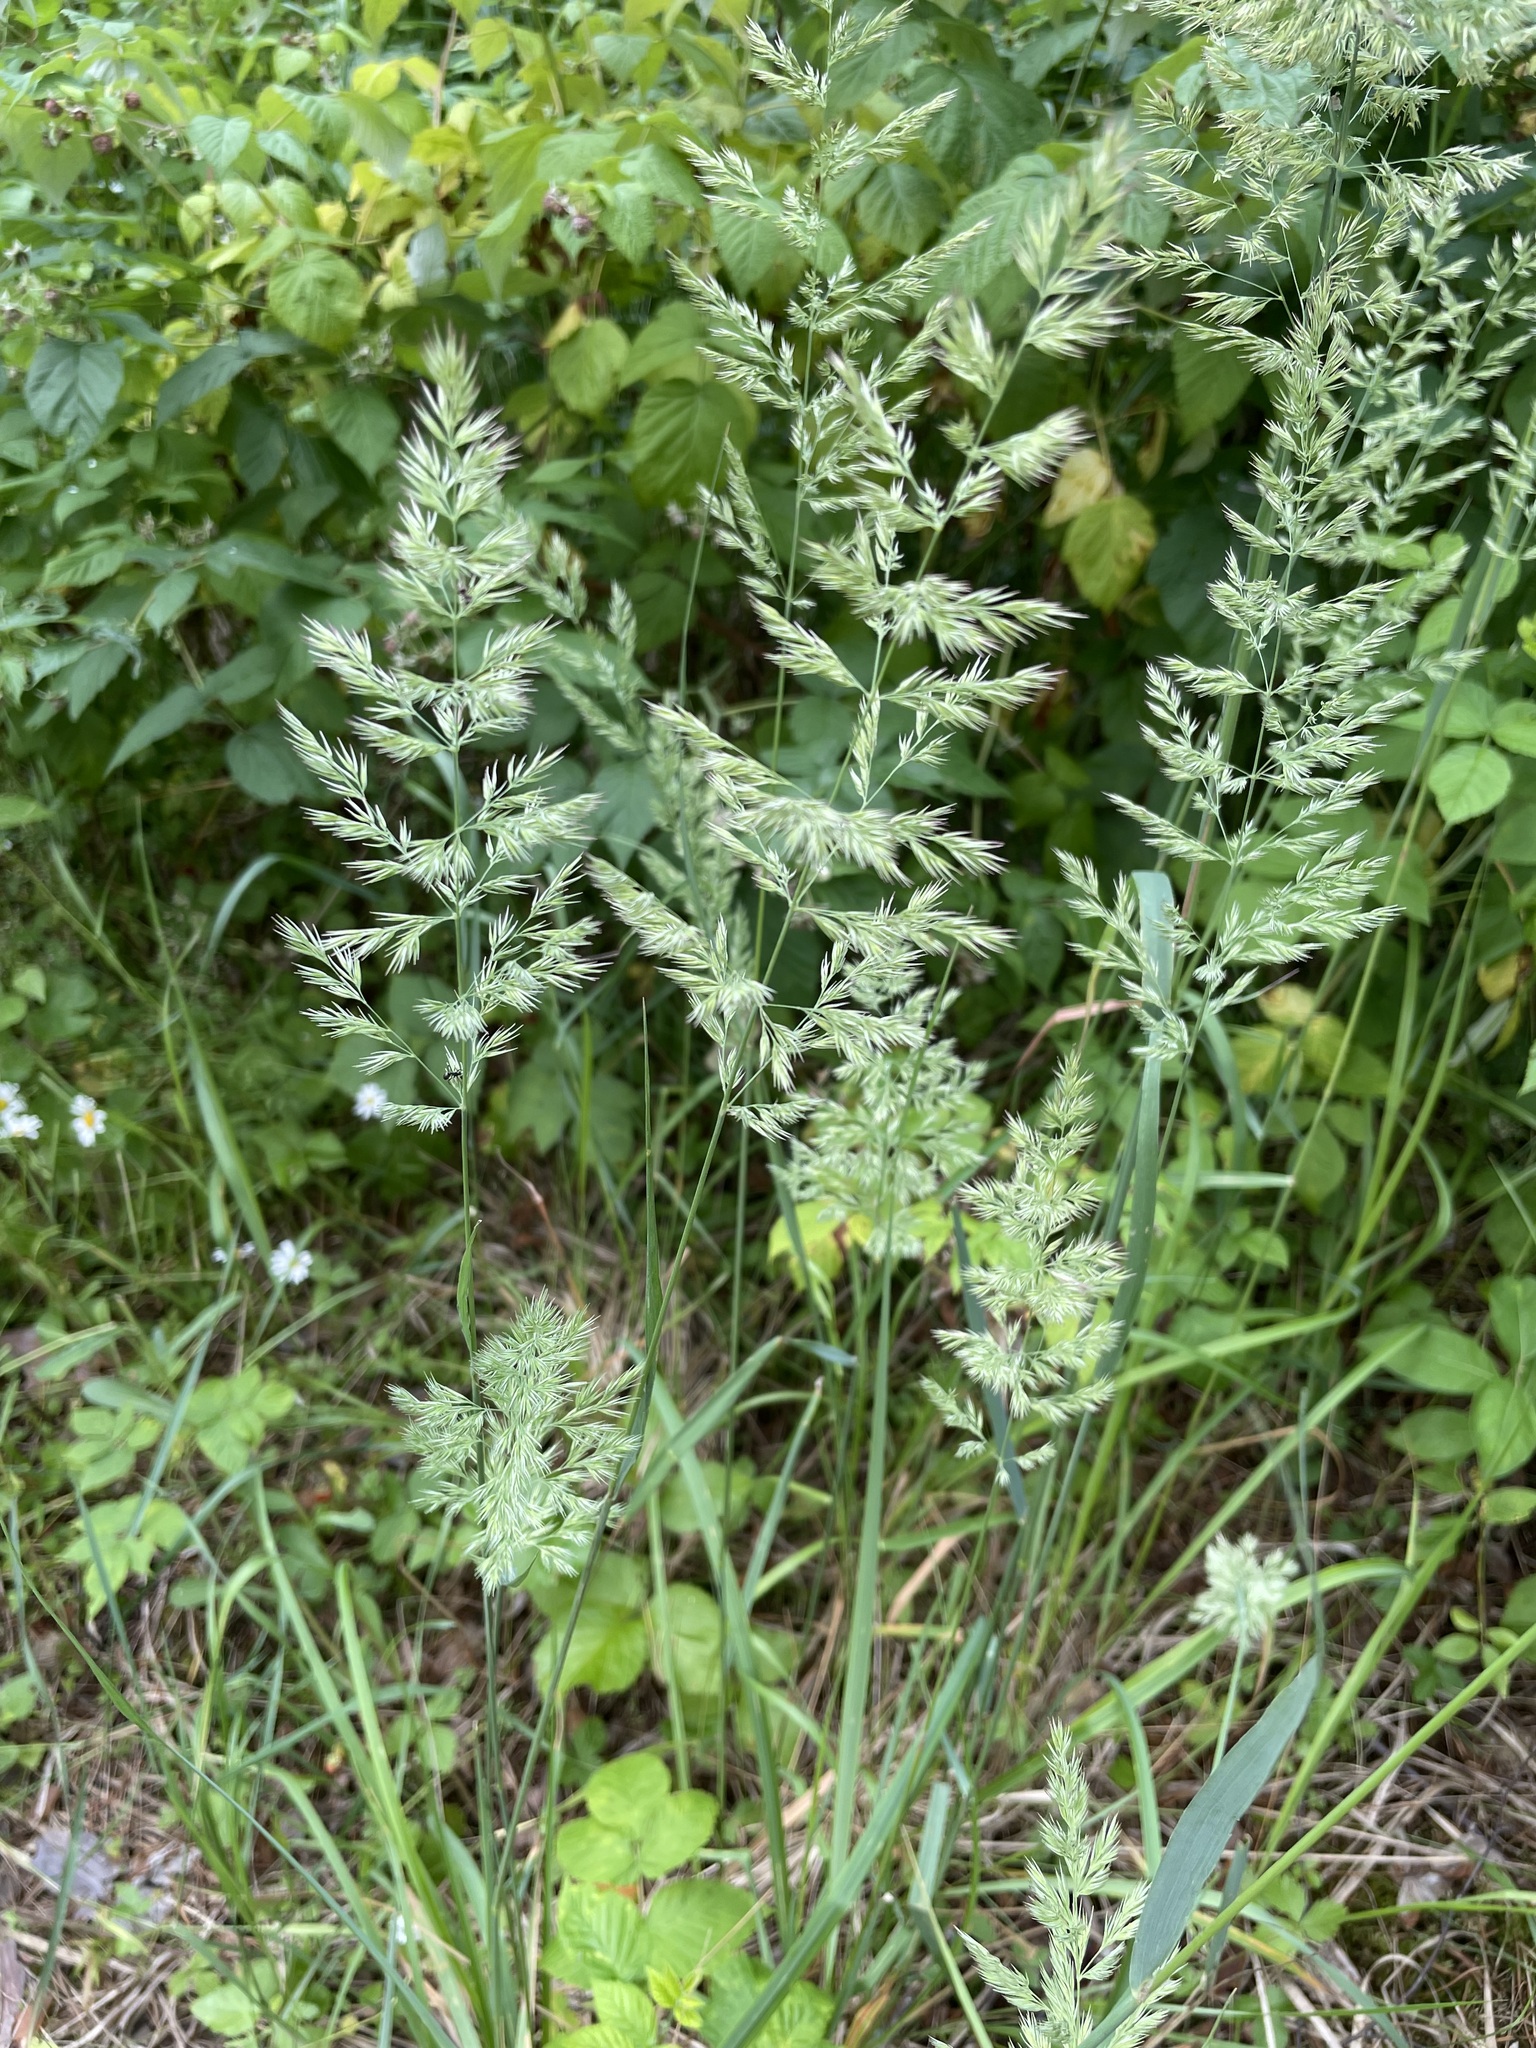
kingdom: Plantae
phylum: Tracheophyta
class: Liliopsida
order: Poales
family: Poaceae
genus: Calamagrostis
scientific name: Calamagrostis epigejos
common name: Wood small-reed
